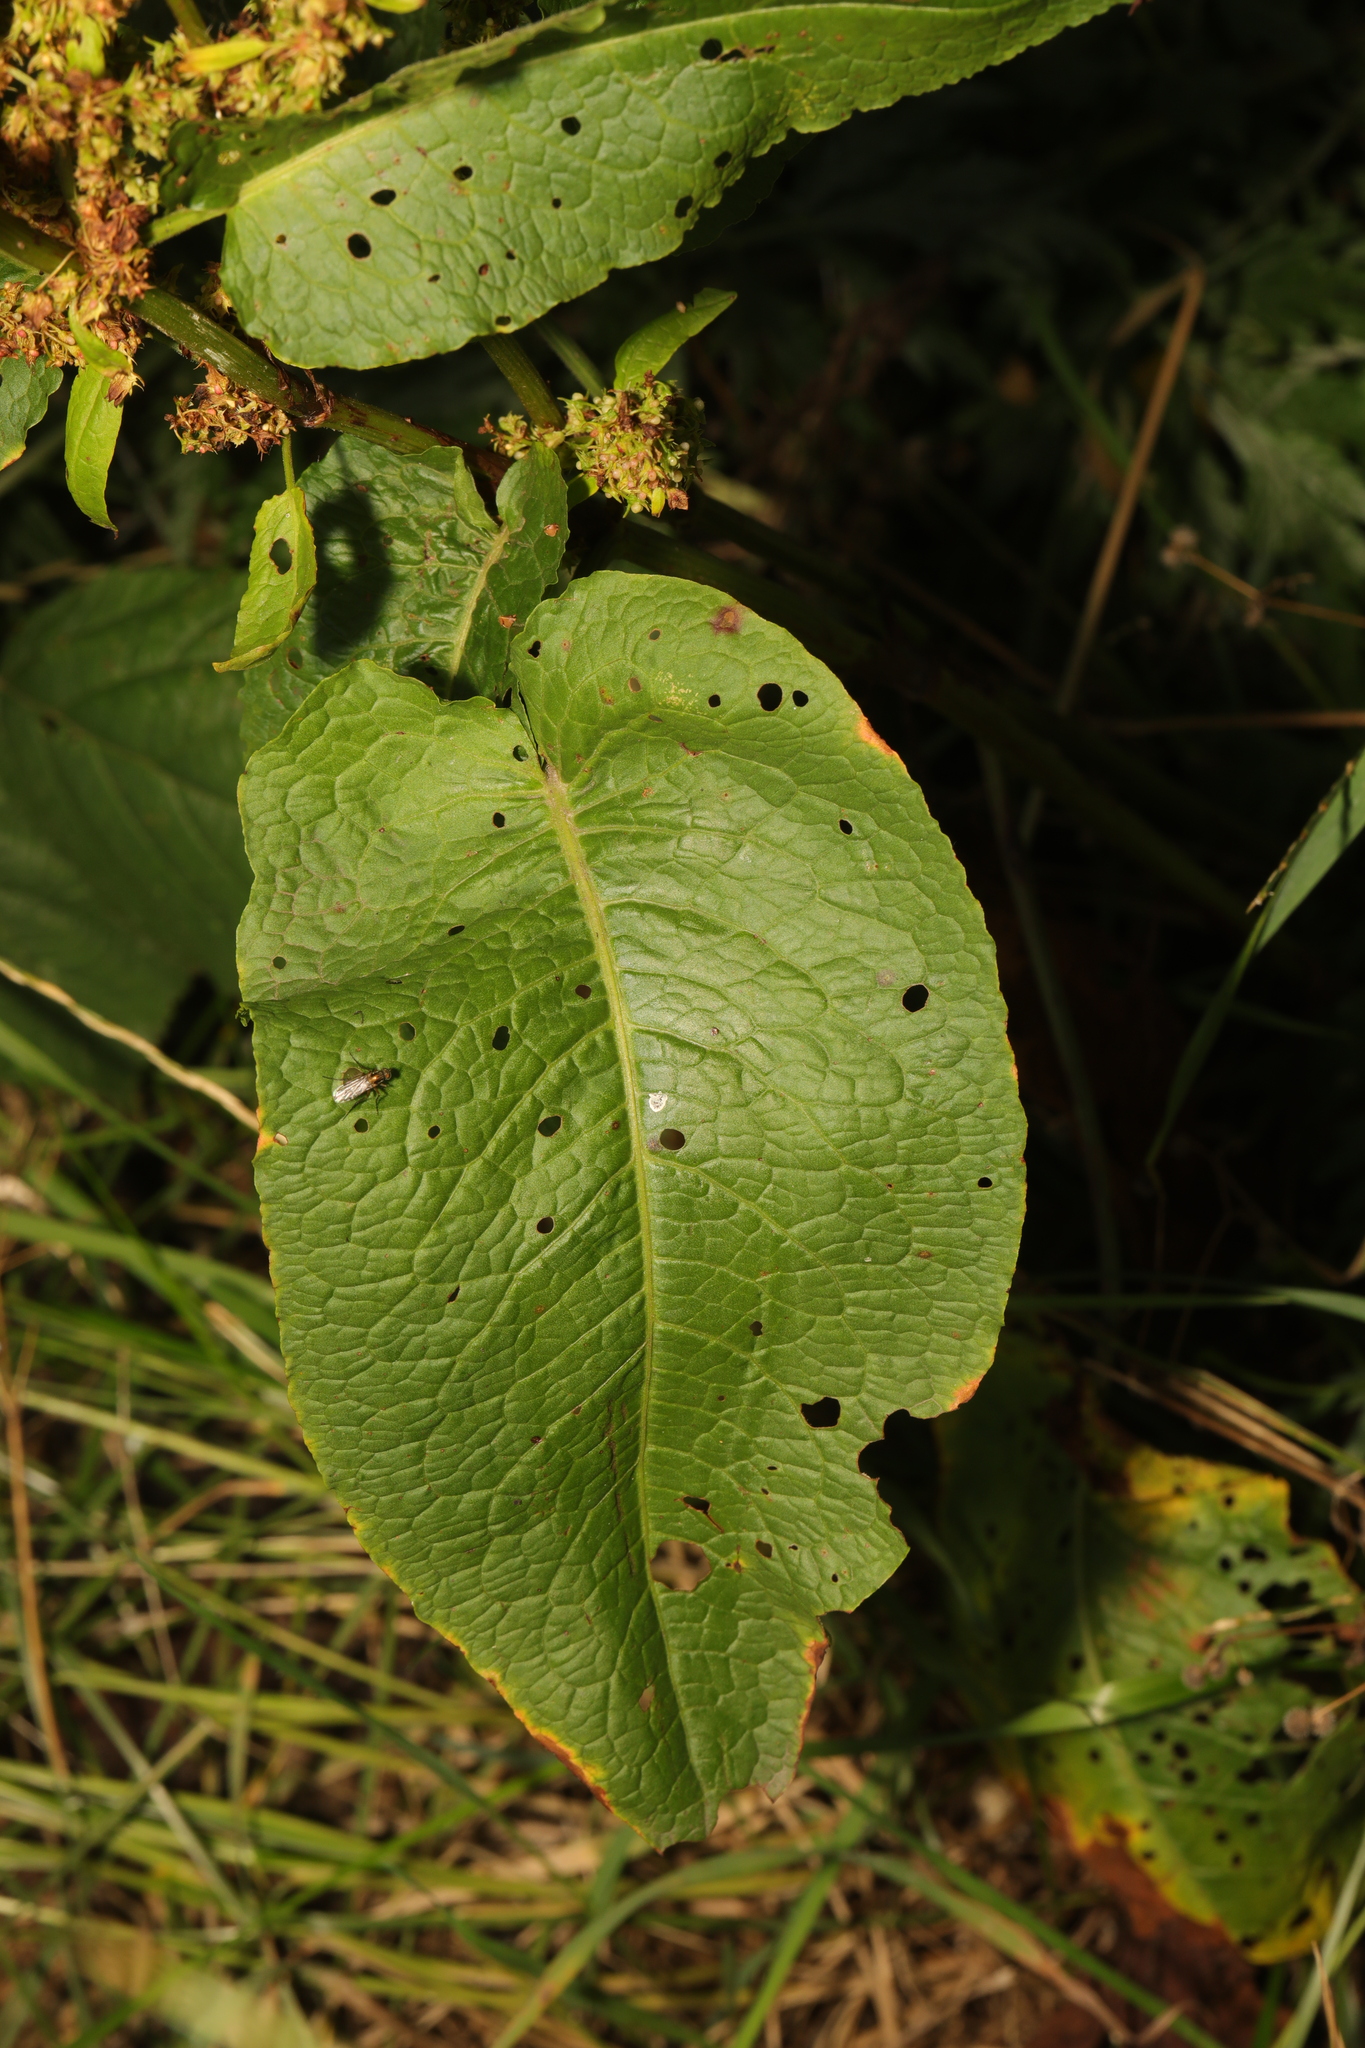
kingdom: Plantae
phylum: Tracheophyta
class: Magnoliopsida
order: Caryophyllales
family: Polygonaceae
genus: Rumex
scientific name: Rumex obtusifolius
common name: Bitter dock
